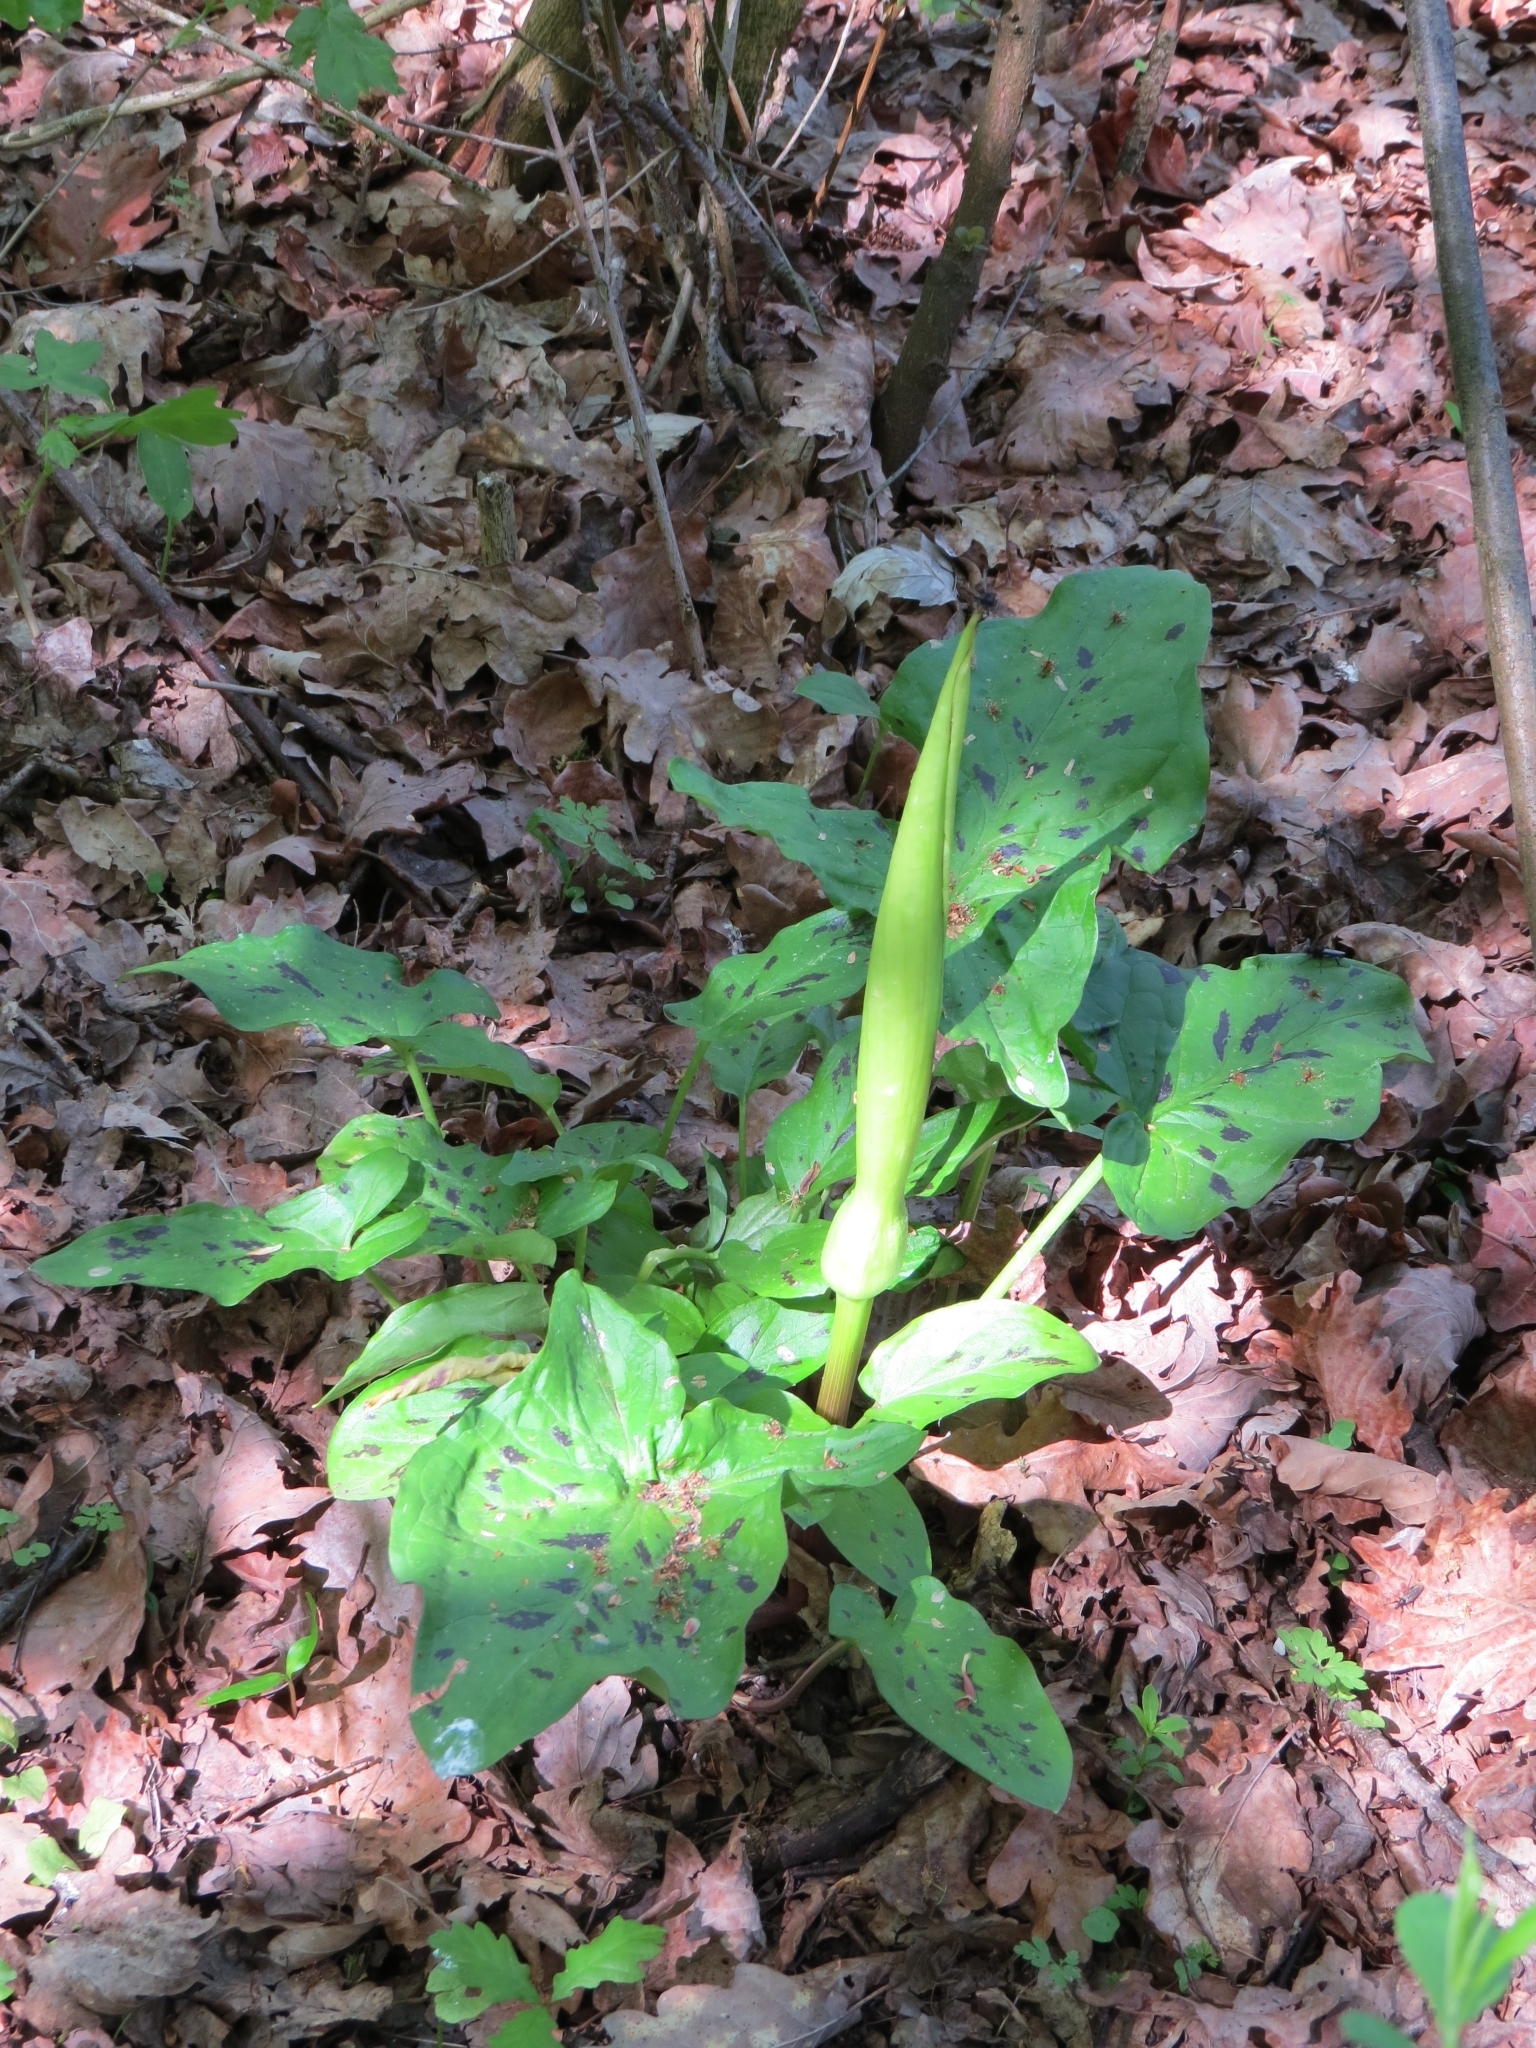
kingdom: Plantae
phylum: Tracheophyta
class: Liliopsida
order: Alismatales
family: Araceae
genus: Arum
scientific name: Arum maculatum
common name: Lords-and-ladies
